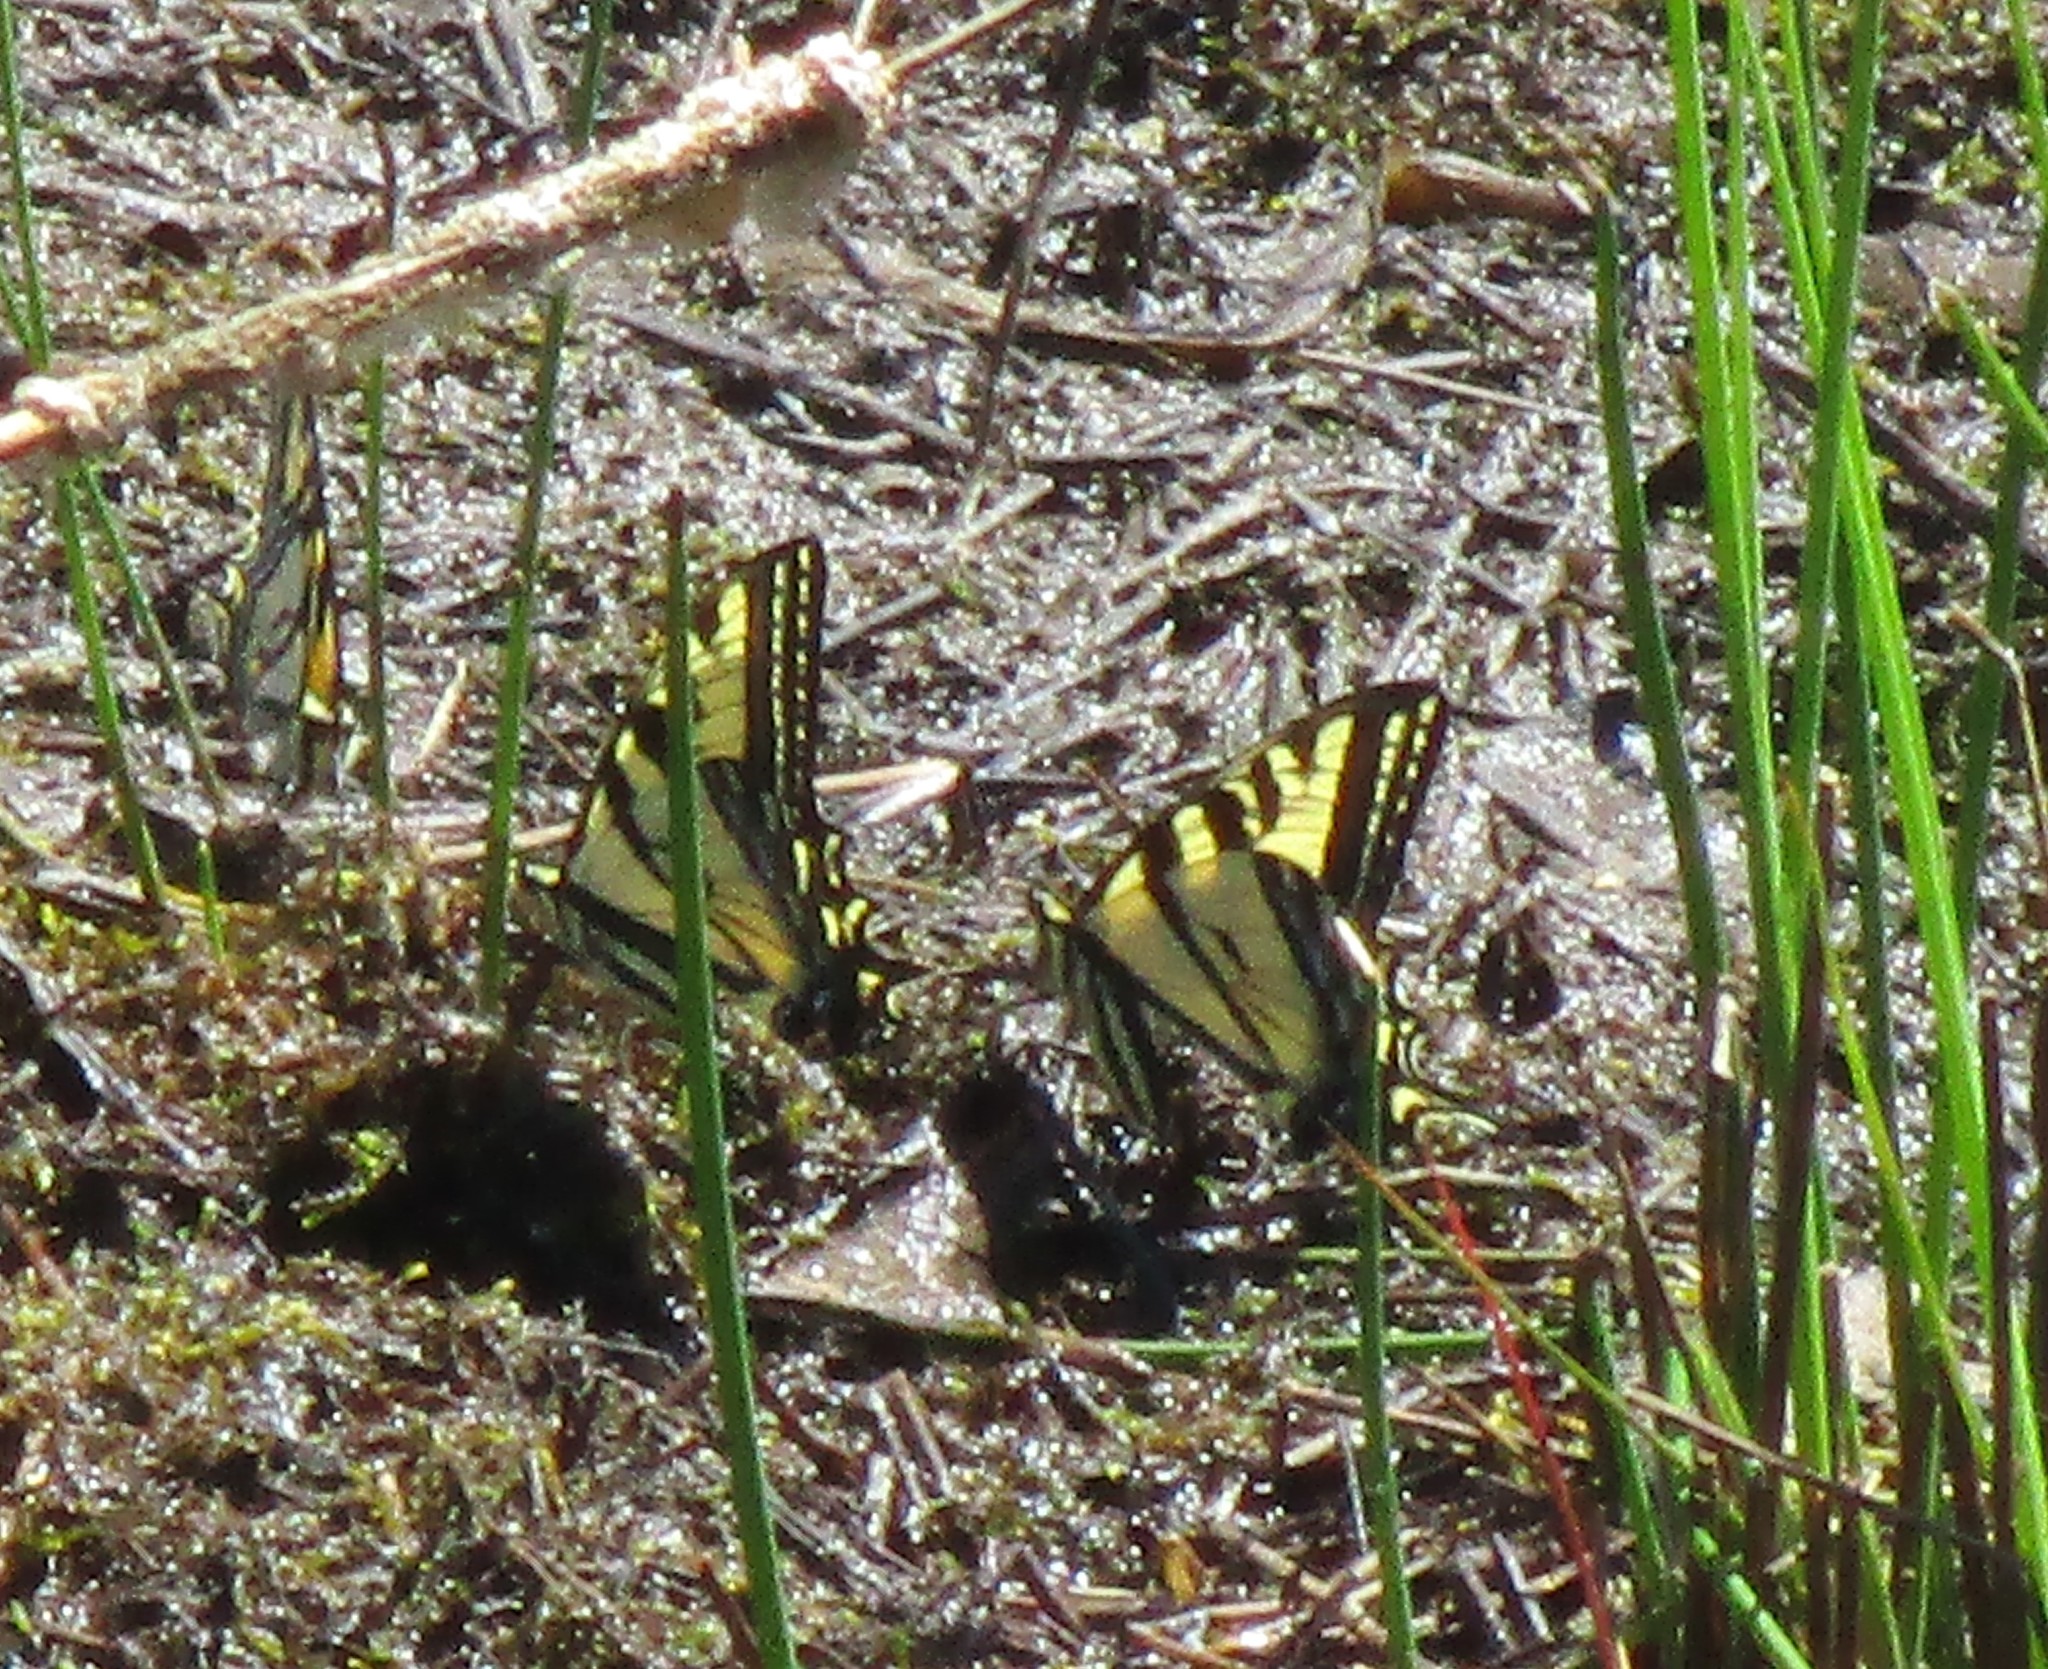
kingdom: Animalia
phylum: Arthropoda
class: Insecta
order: Lepidoptera
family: Papilionidae
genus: Papilio
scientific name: Papilio rutulus
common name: Western tiger swallowtail
